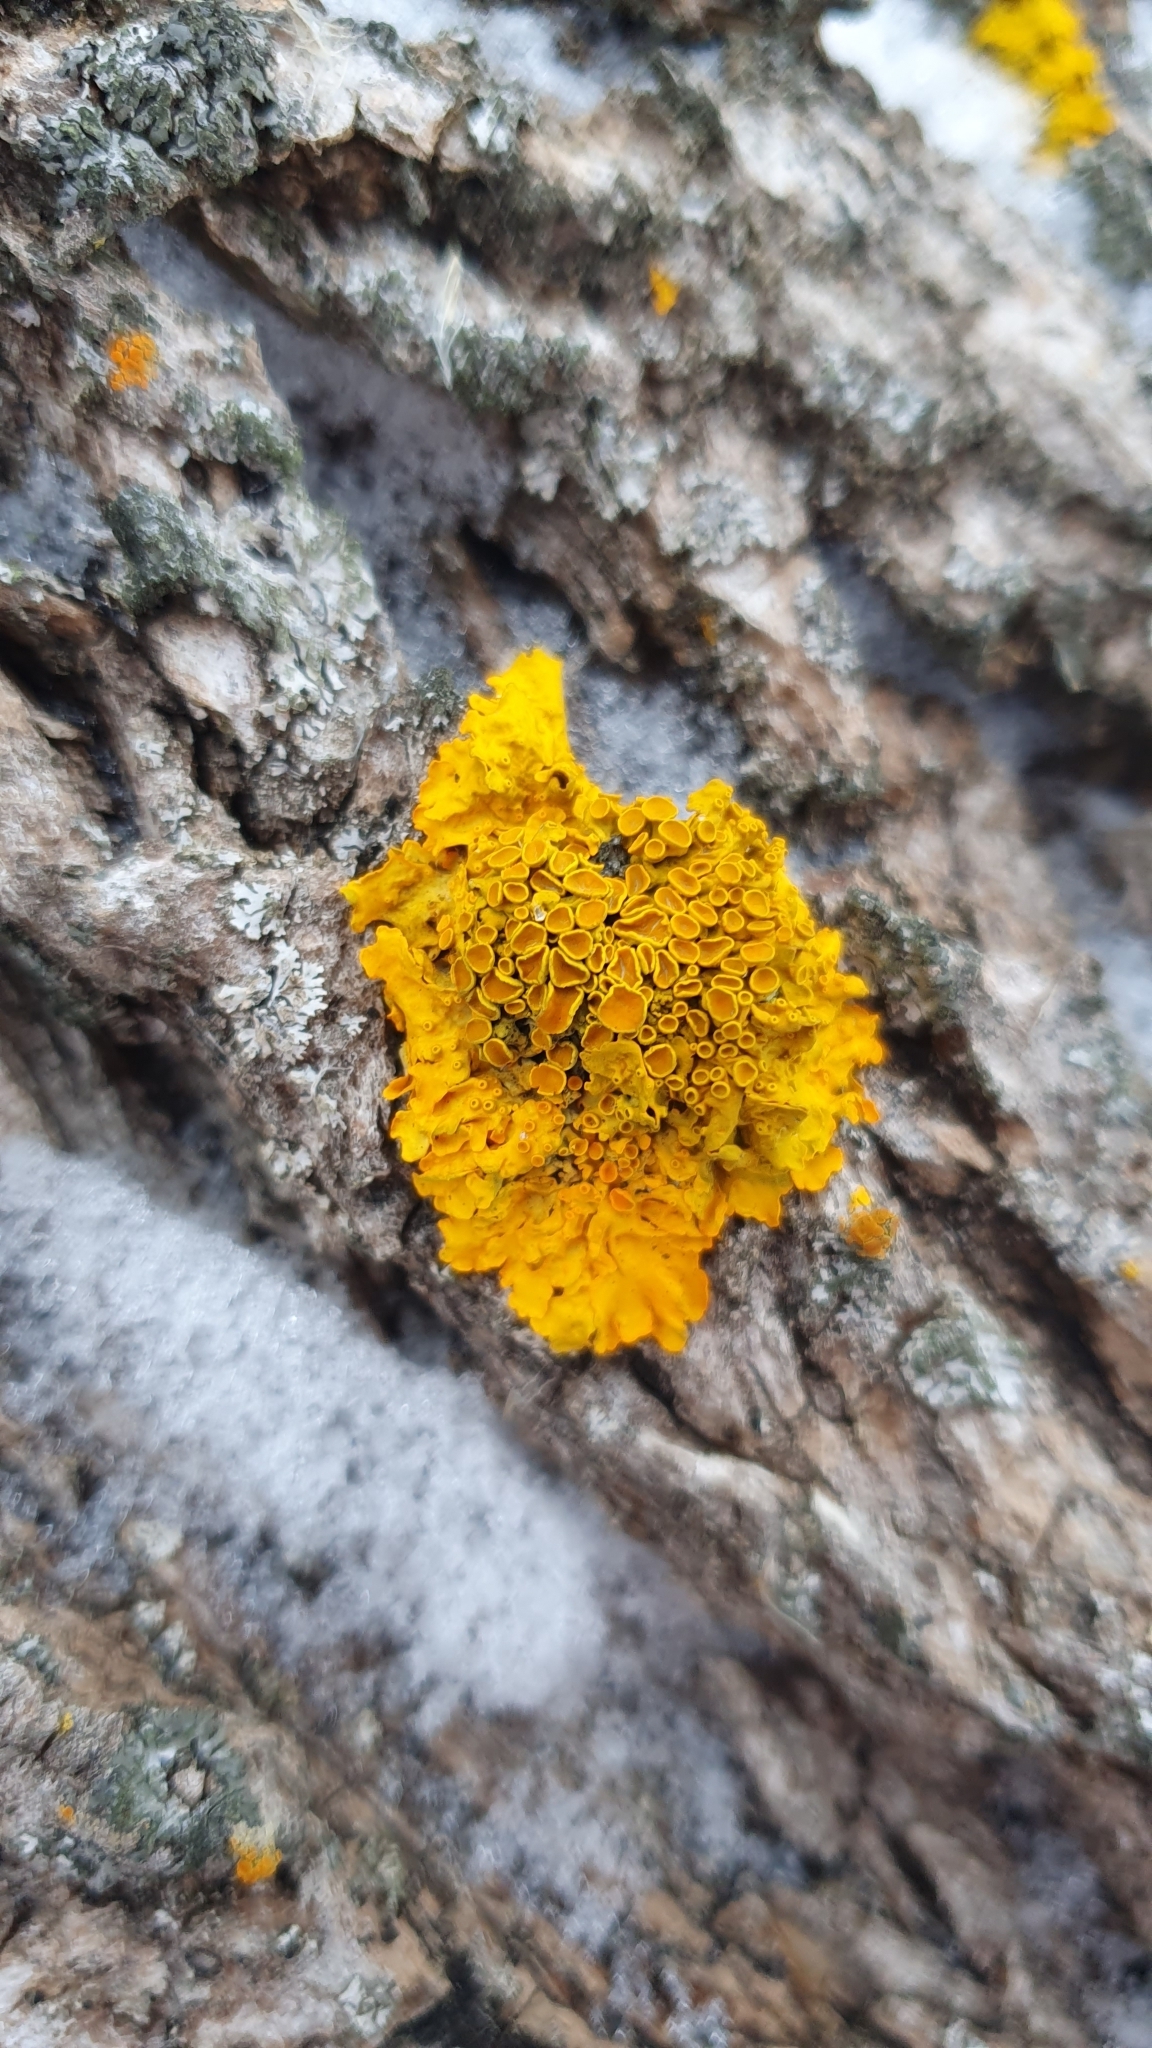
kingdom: Fungi
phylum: Ascomycota
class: Lecanoromycetes
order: Teloschistales
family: Teloschistaceae
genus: Xanthoria
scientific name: Xanthoria parietina
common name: Common orange lichen
